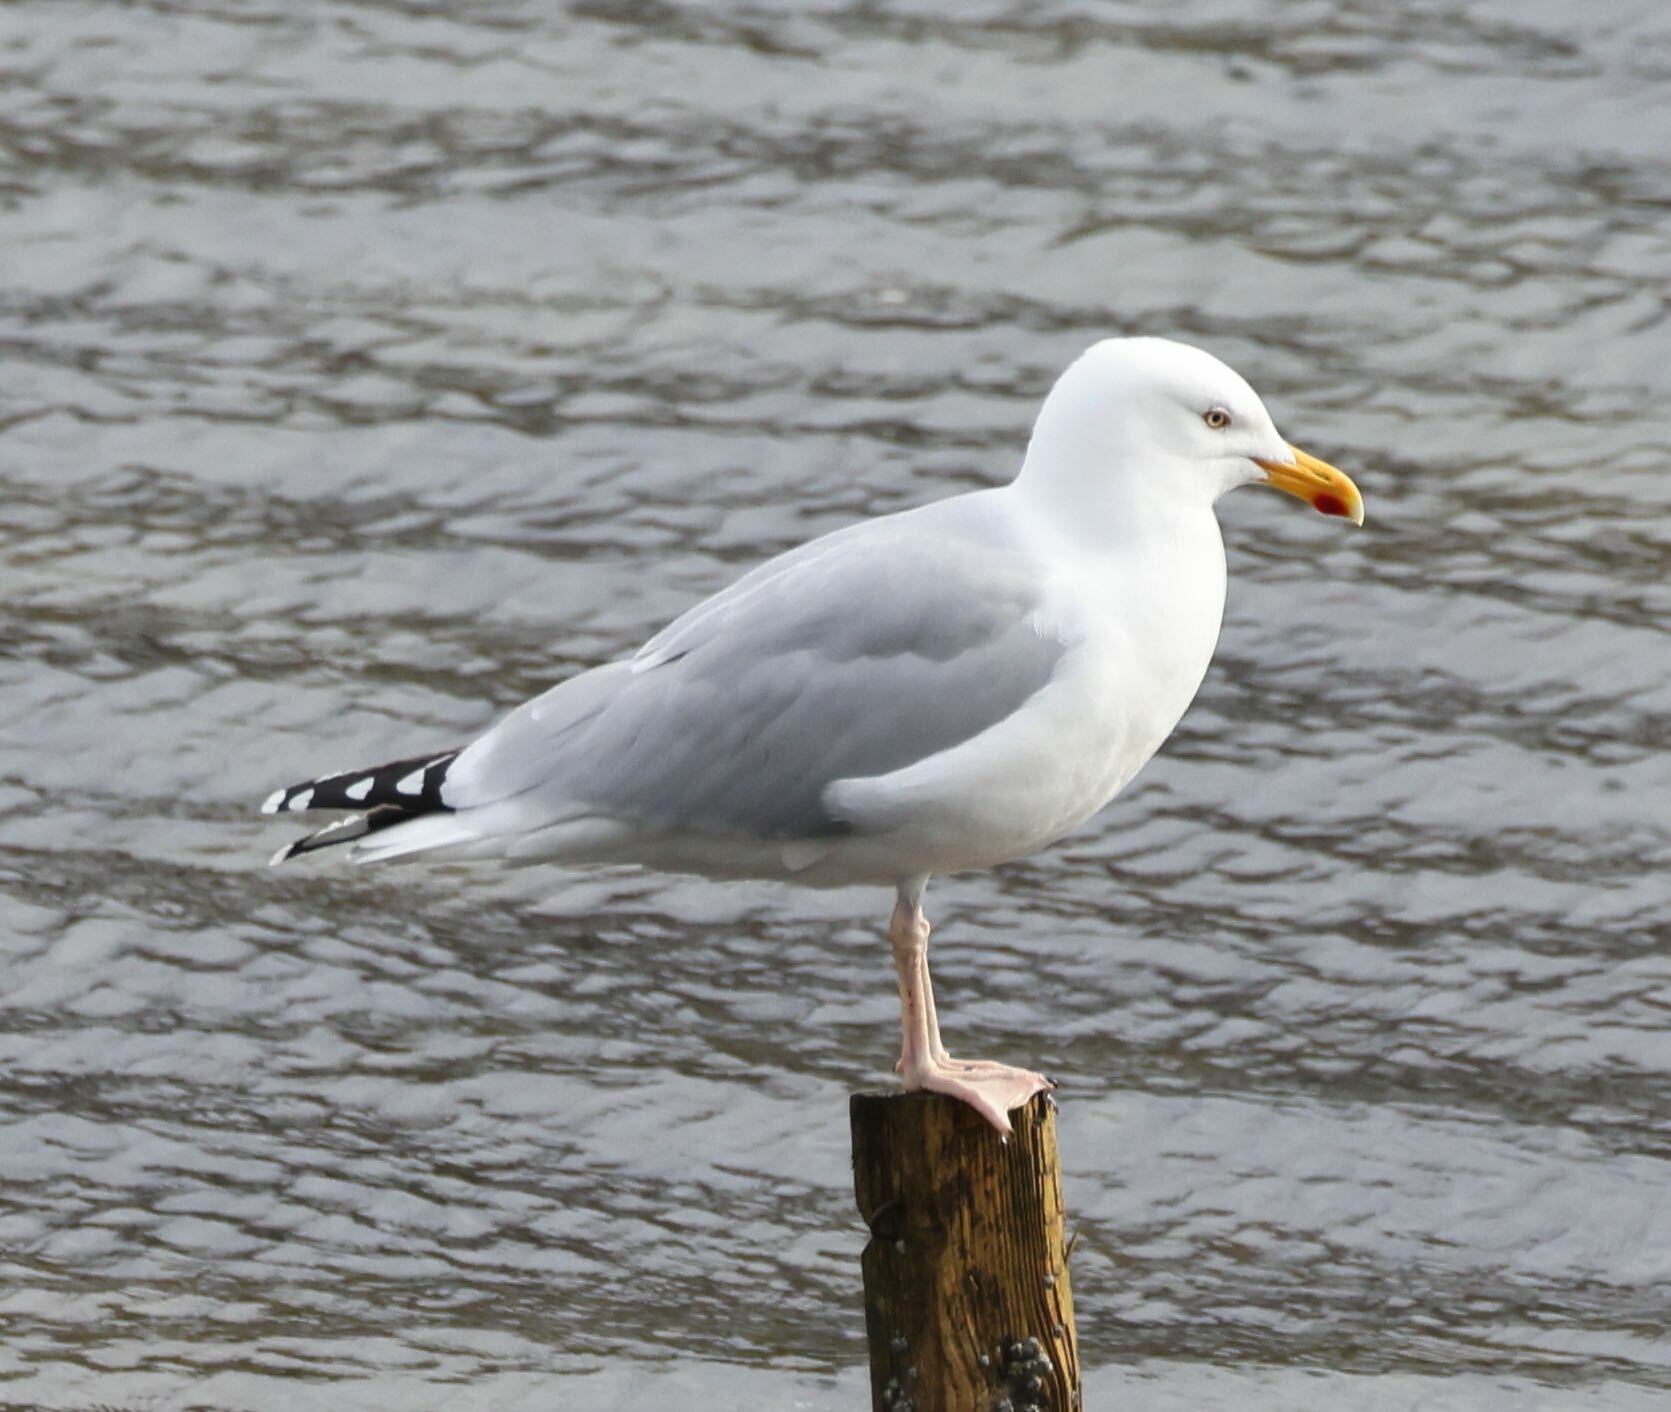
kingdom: Animalia
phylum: Chordata
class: Aves
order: Charadriiformes
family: Laridae
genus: Larus
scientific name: Larus argentatus
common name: Herring gull
